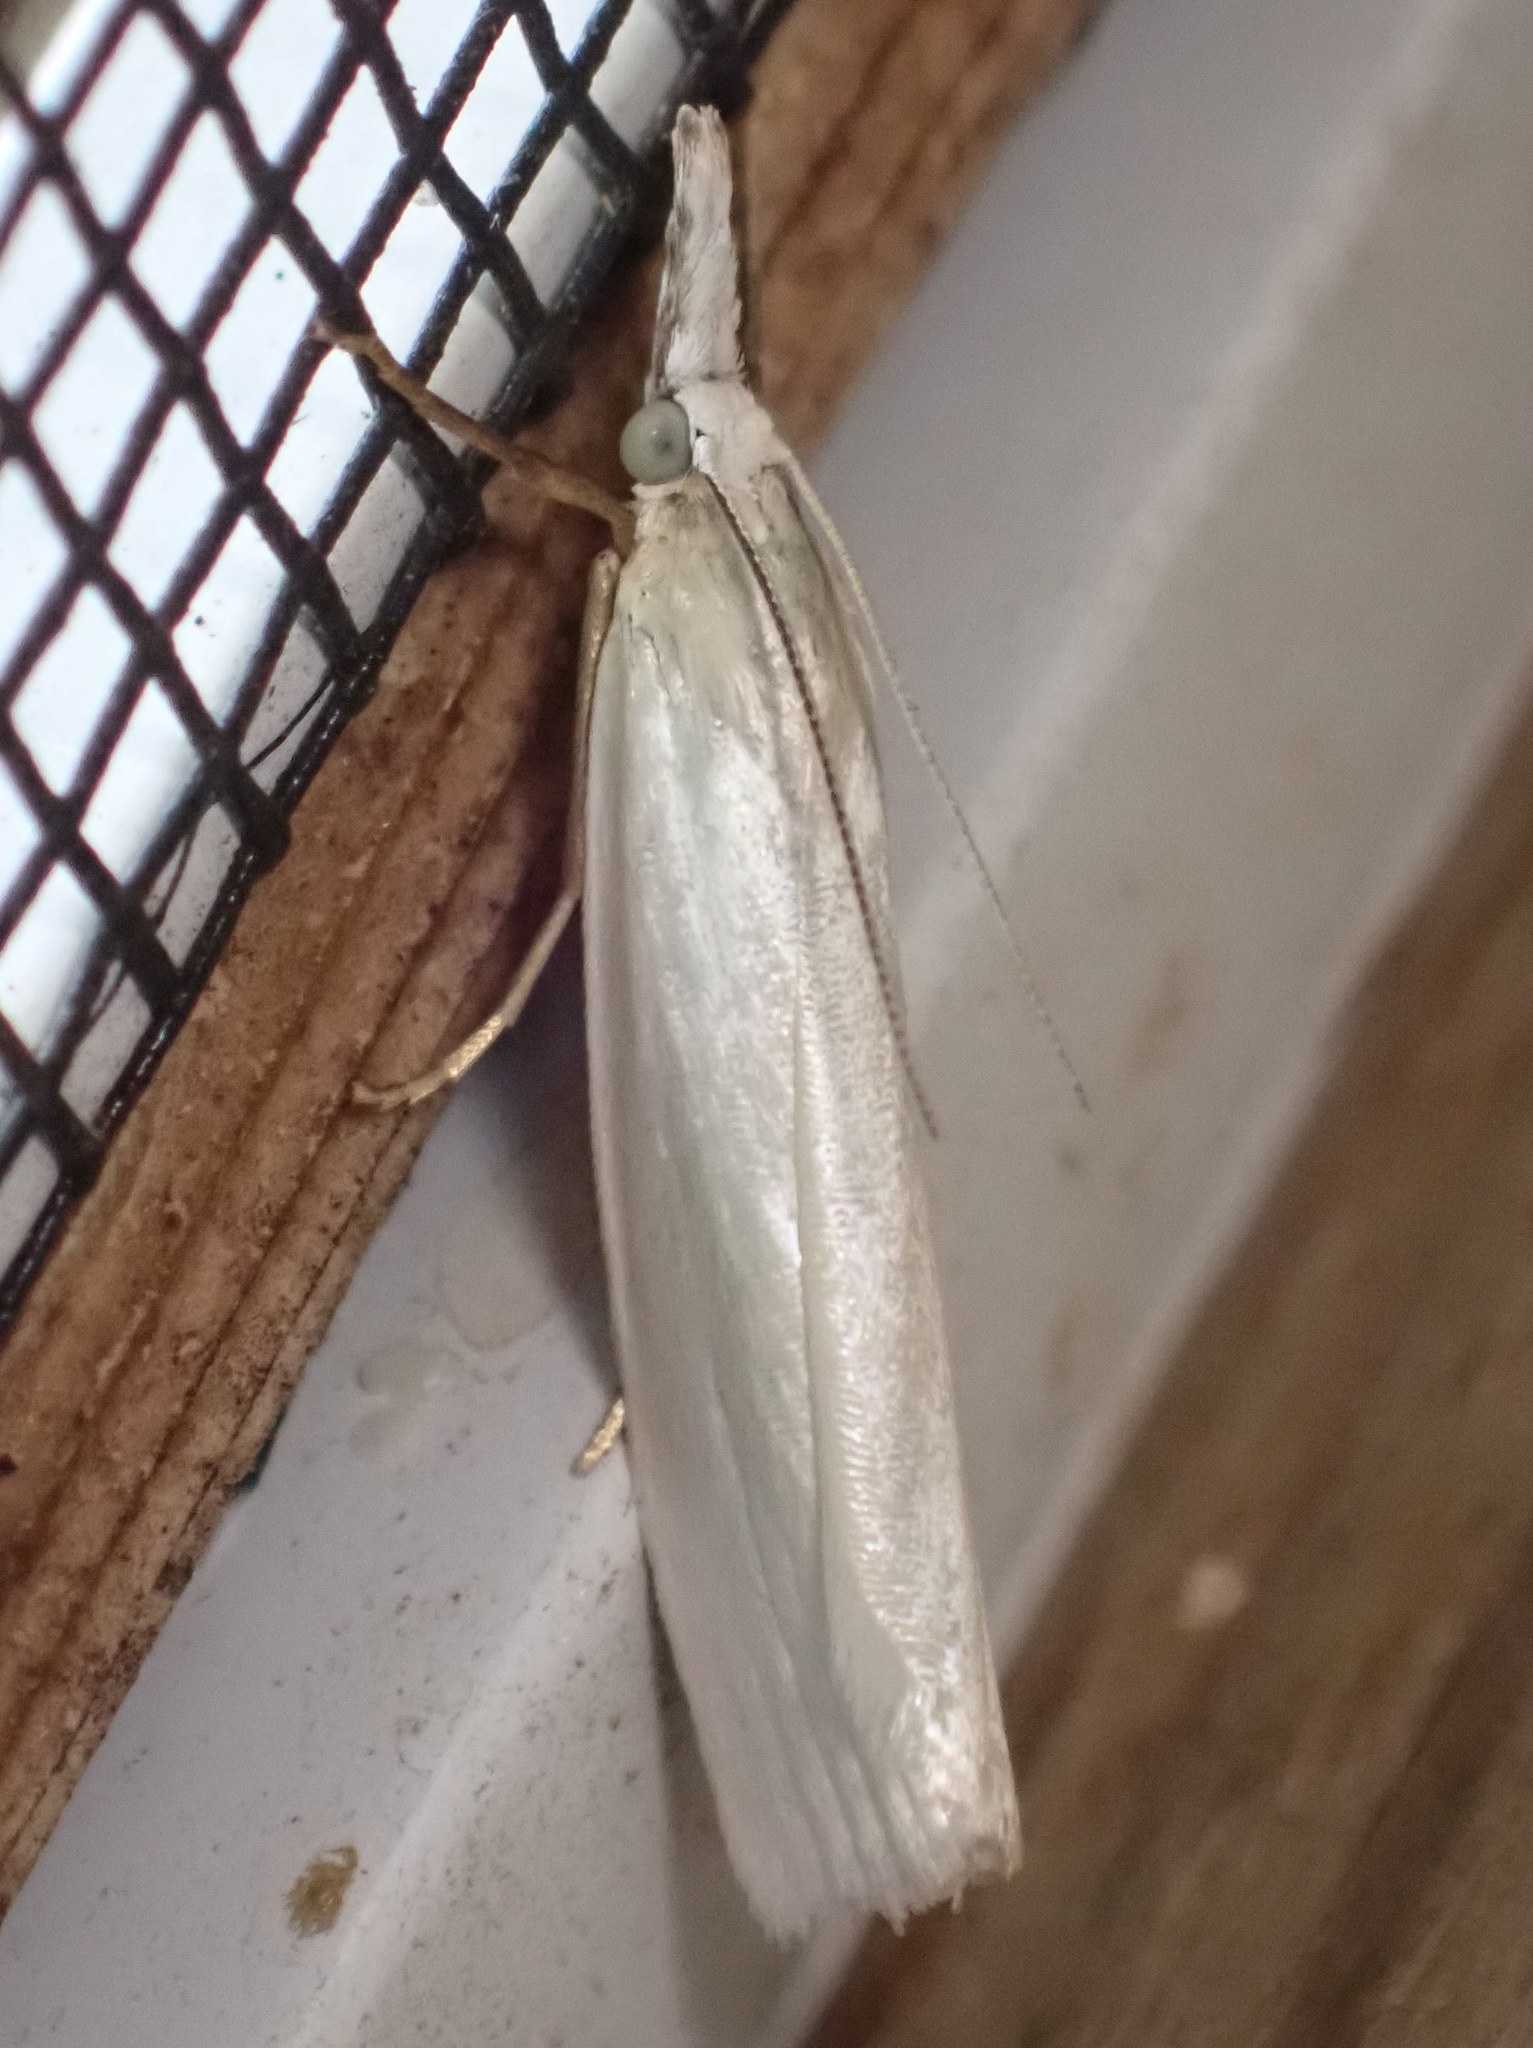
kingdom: Animalia
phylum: Arthropoda
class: Insecta
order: Lepidoptera
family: Crambidae
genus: Crambus
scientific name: Crambus perlellus
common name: Yellow satin veneer
